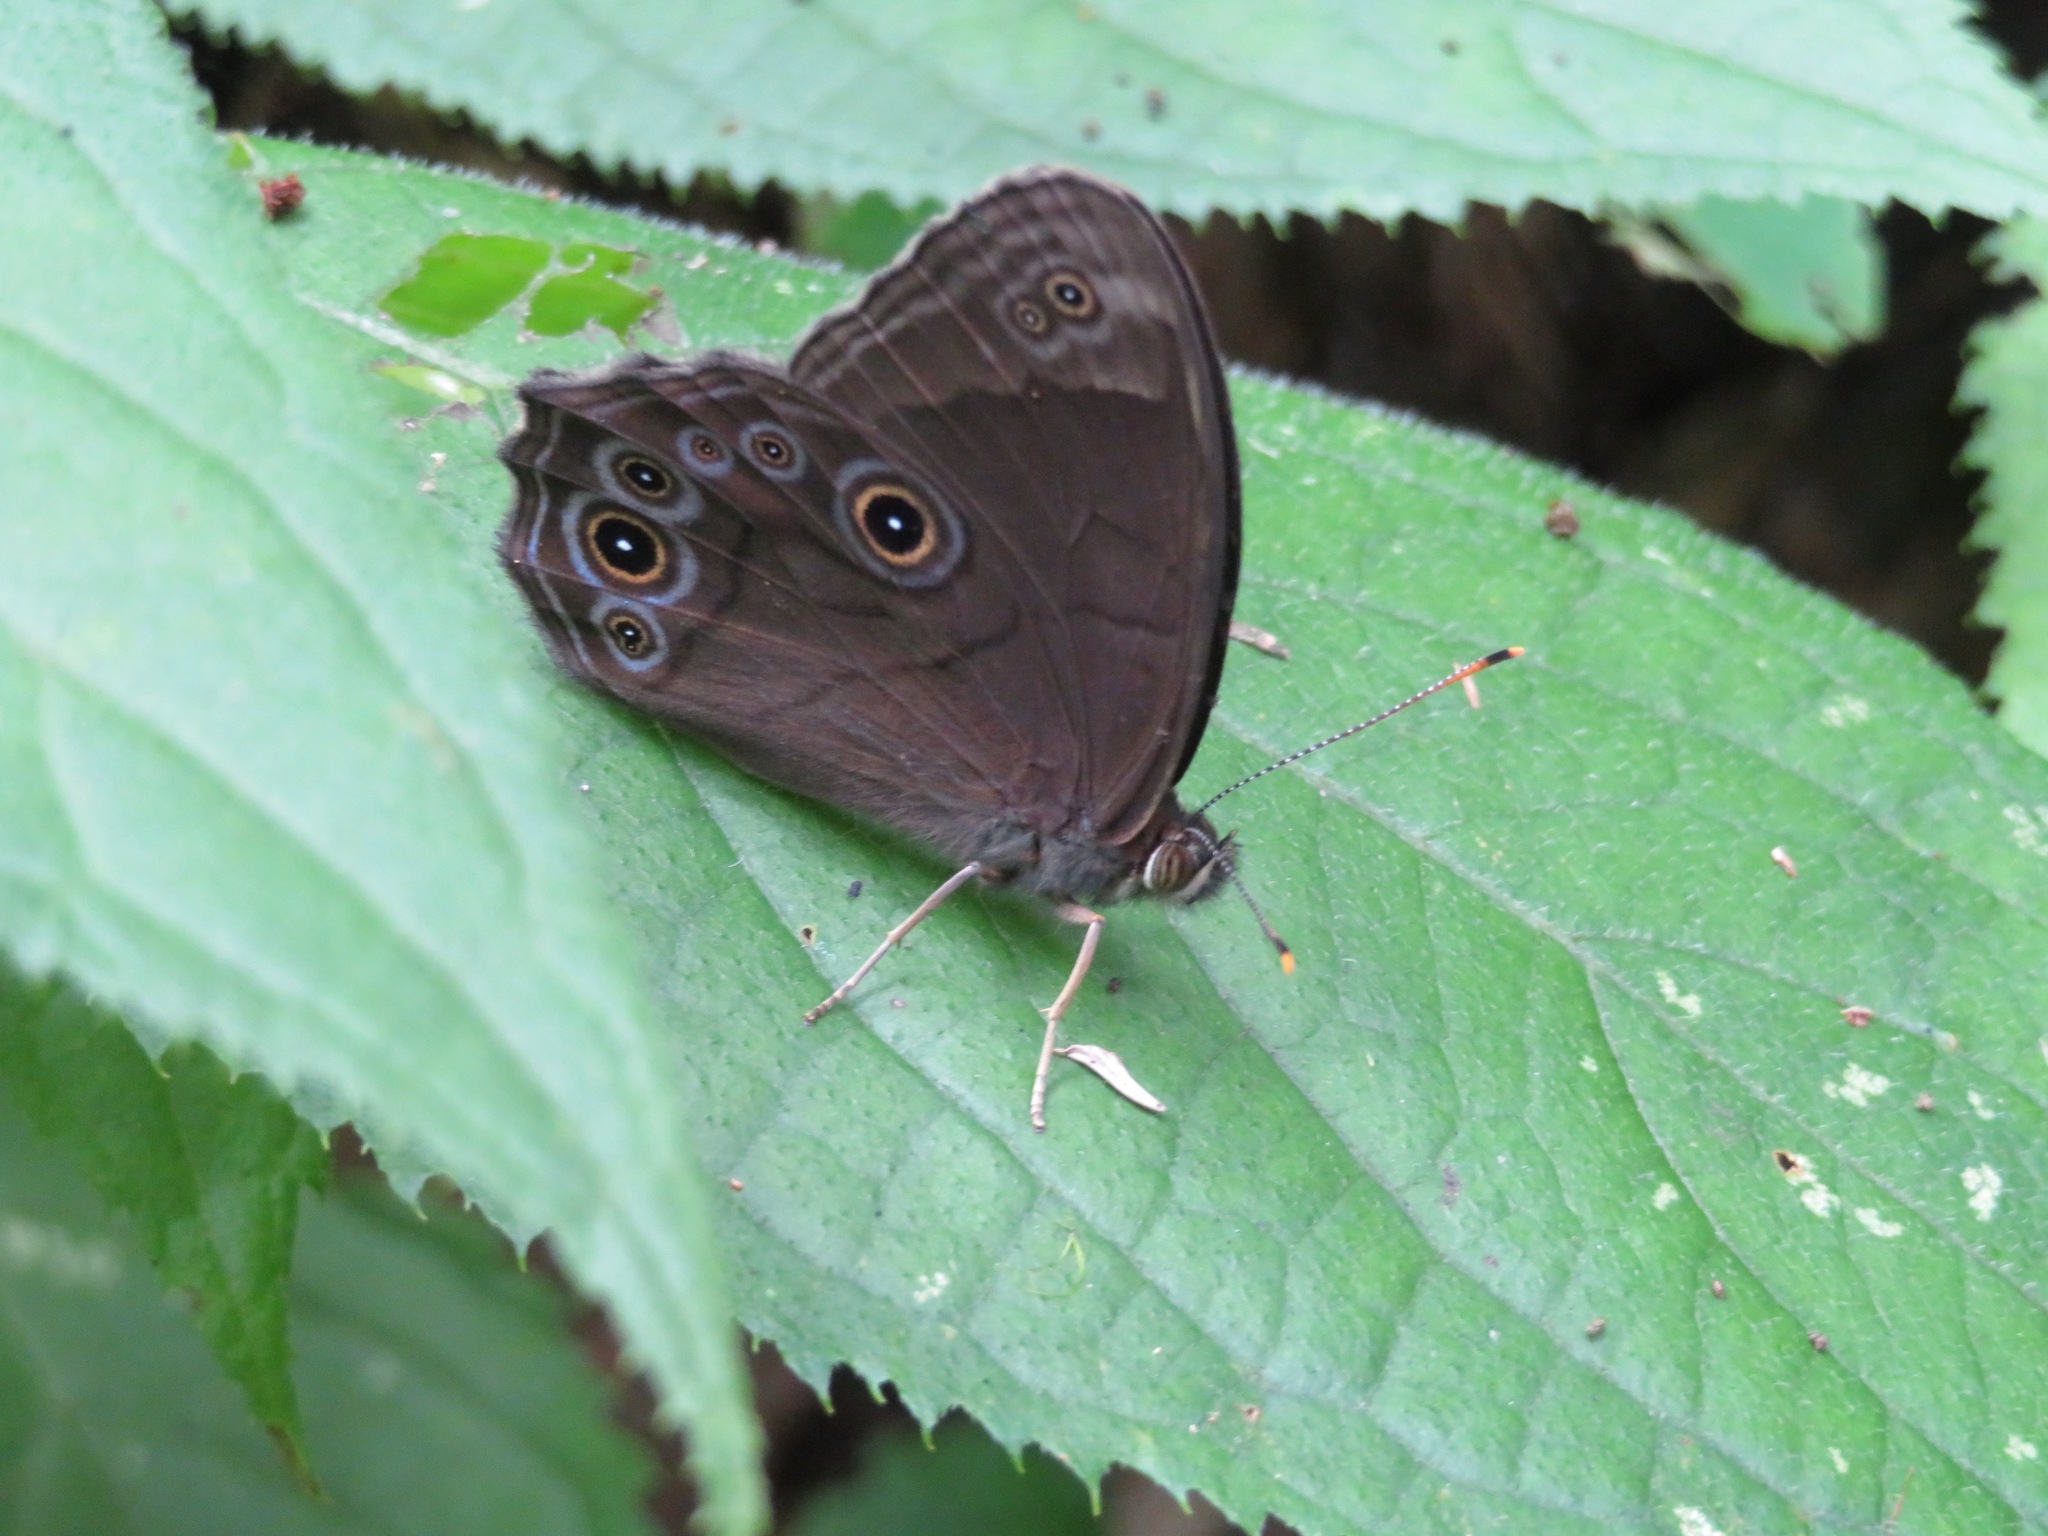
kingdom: Animalia
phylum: Arthropoda
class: Insecta
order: Lepidoptera
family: Nymphalidae
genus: Lethe
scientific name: Lethe diana
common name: Diana treebrown
